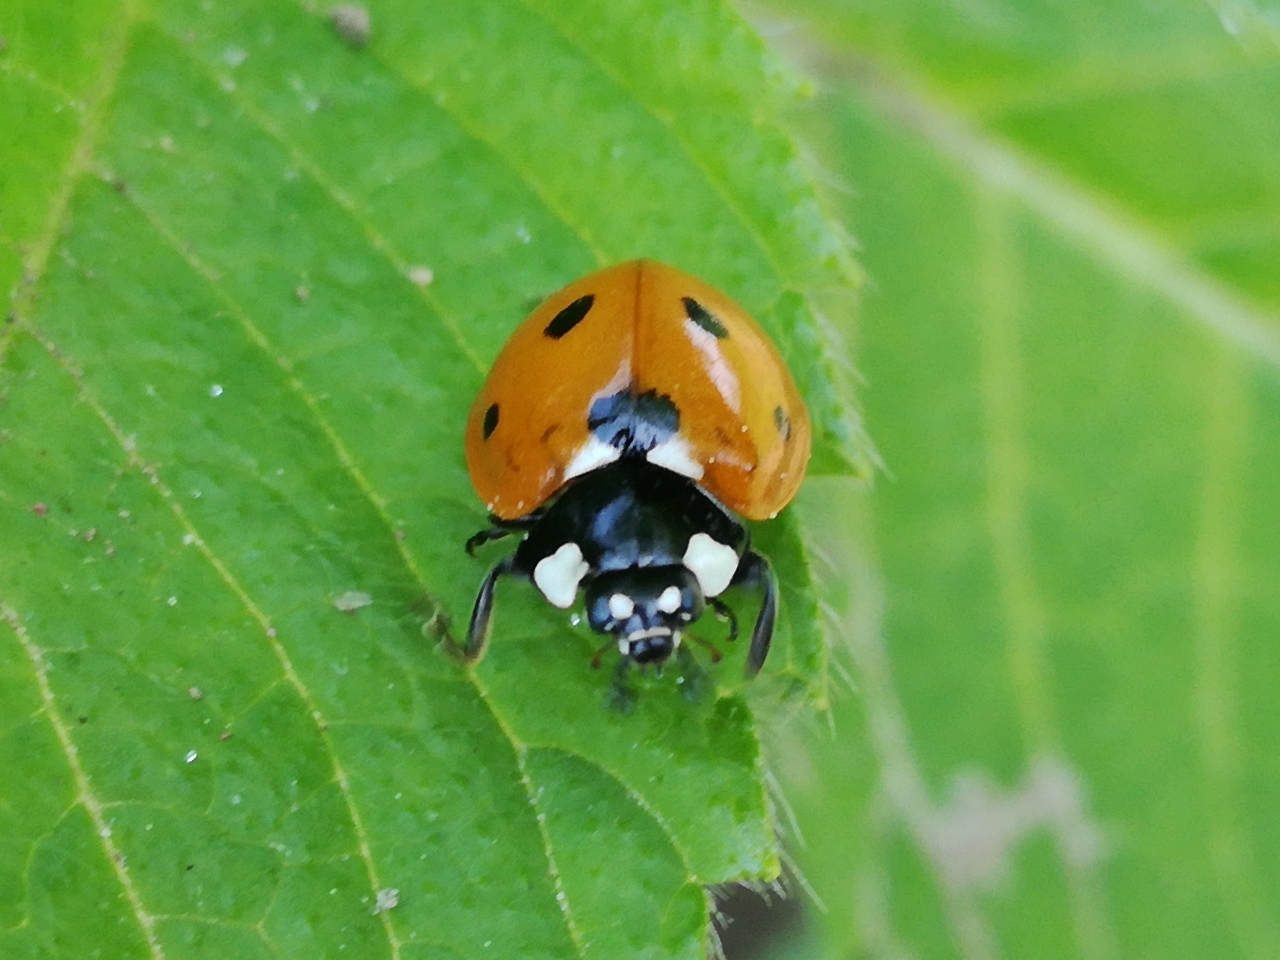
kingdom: Animalia
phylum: Arthropoda
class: Insecta
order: Coleoptera
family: Coccinellidae
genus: Coccinella
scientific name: Coccinella septempunctata
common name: Sevenspotted lady beetle
